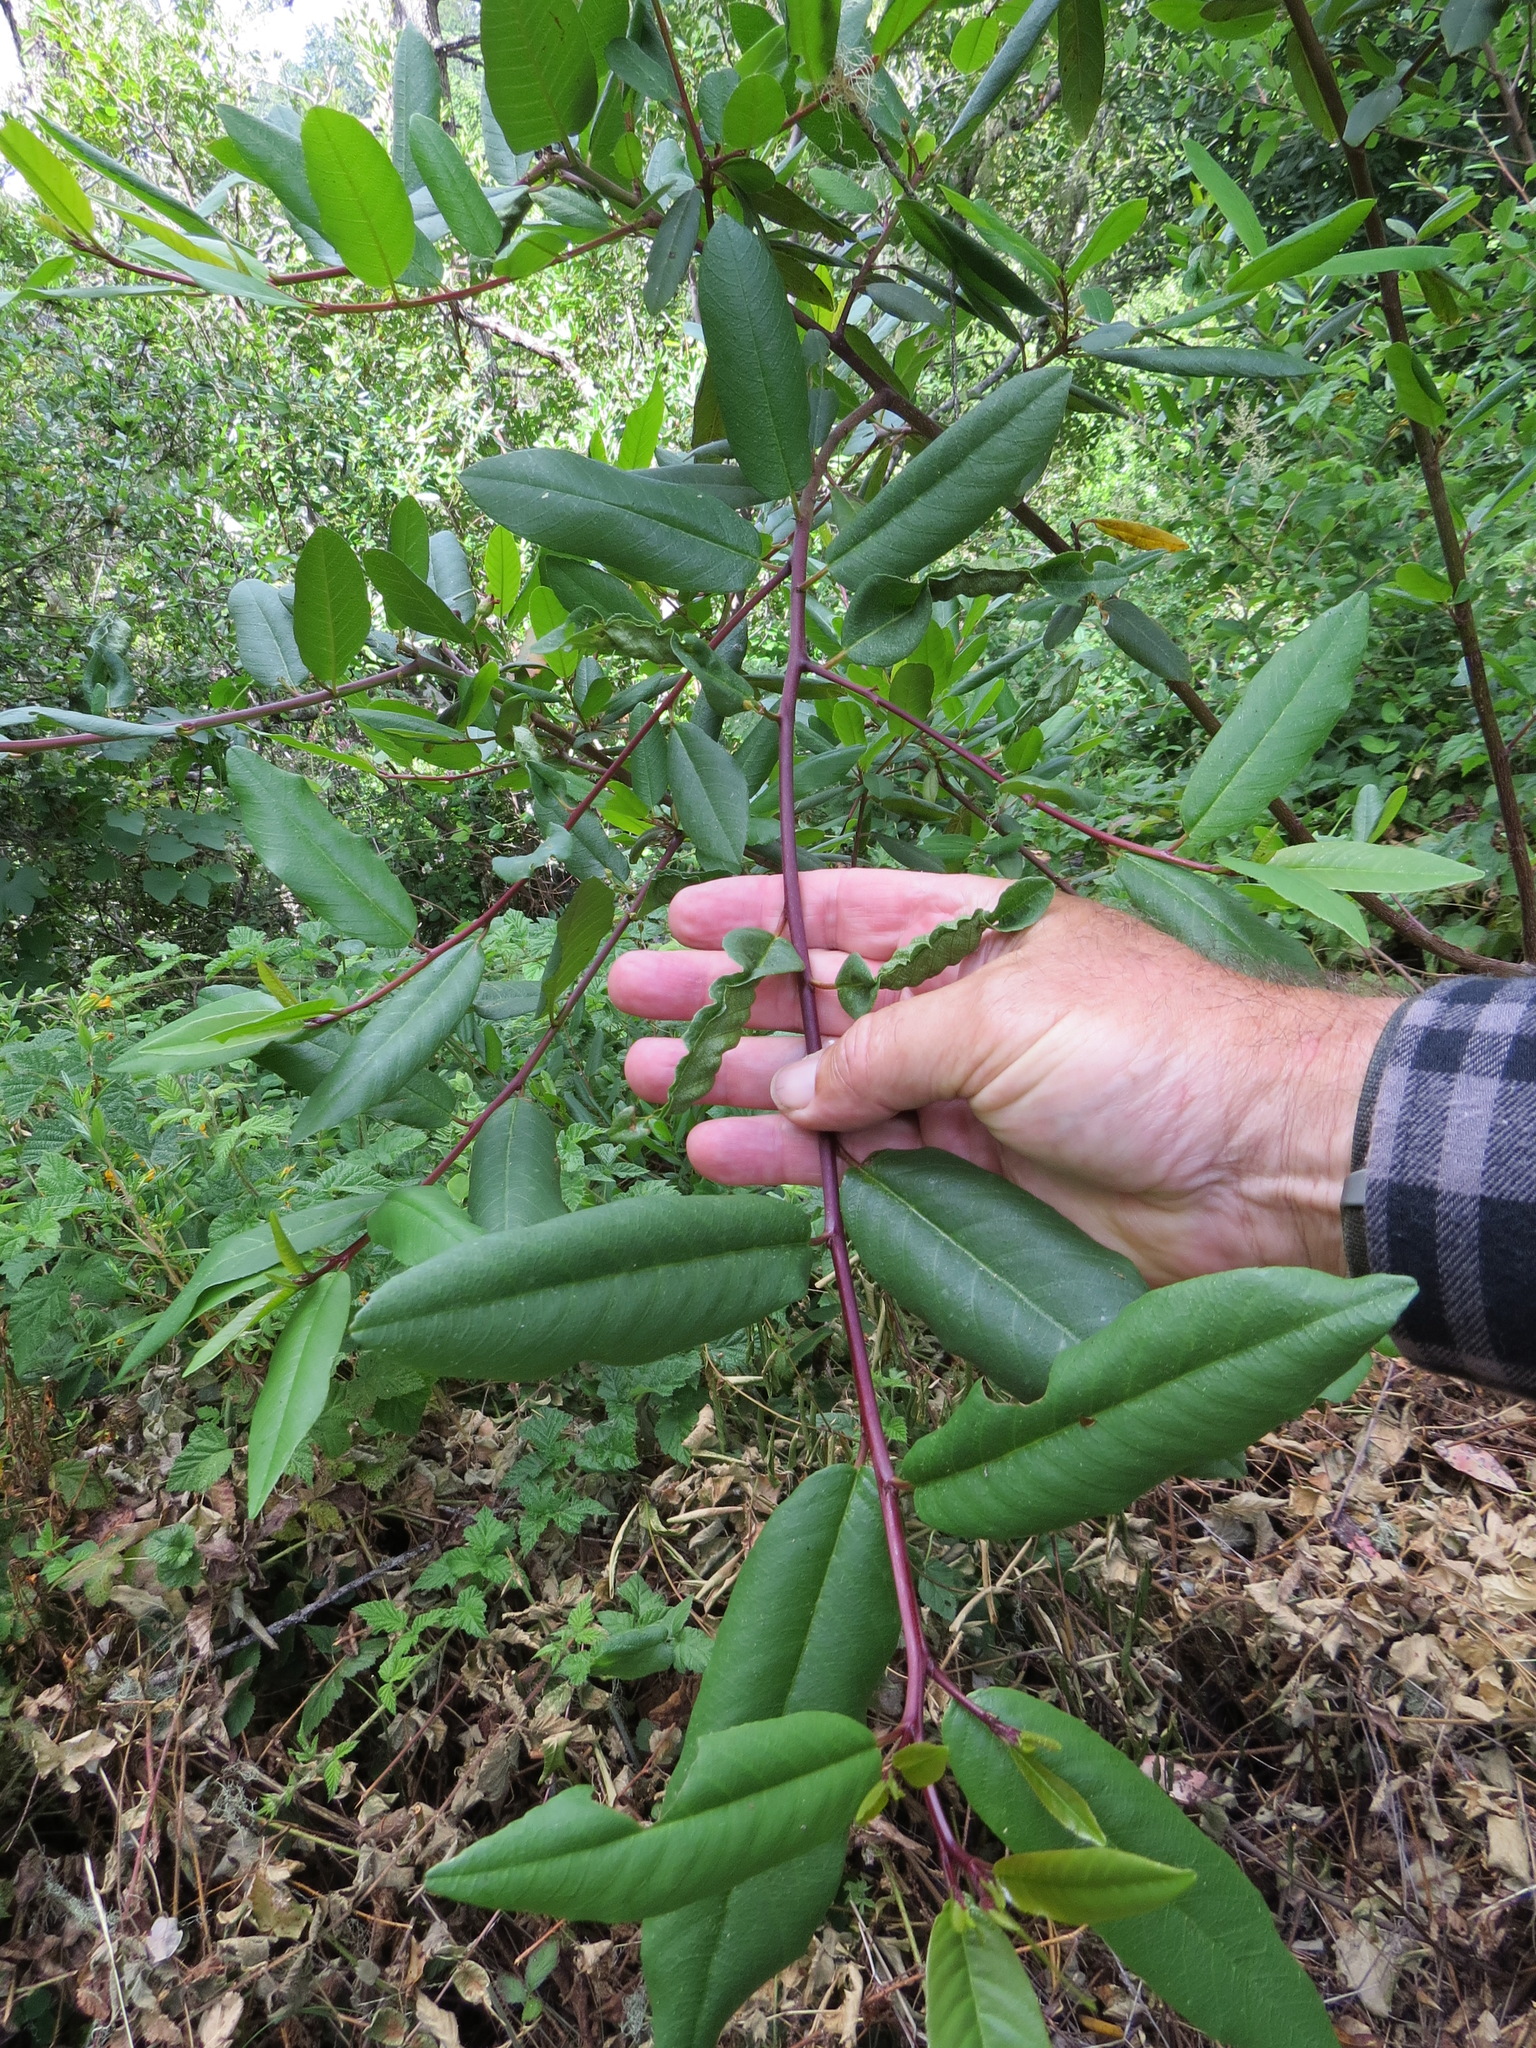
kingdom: Animalia
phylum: Arthropoda
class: Insecta
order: Lepidoptera
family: Cosmopterigidae
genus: Sorhagenia
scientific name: Sorhagenia nimbosus
